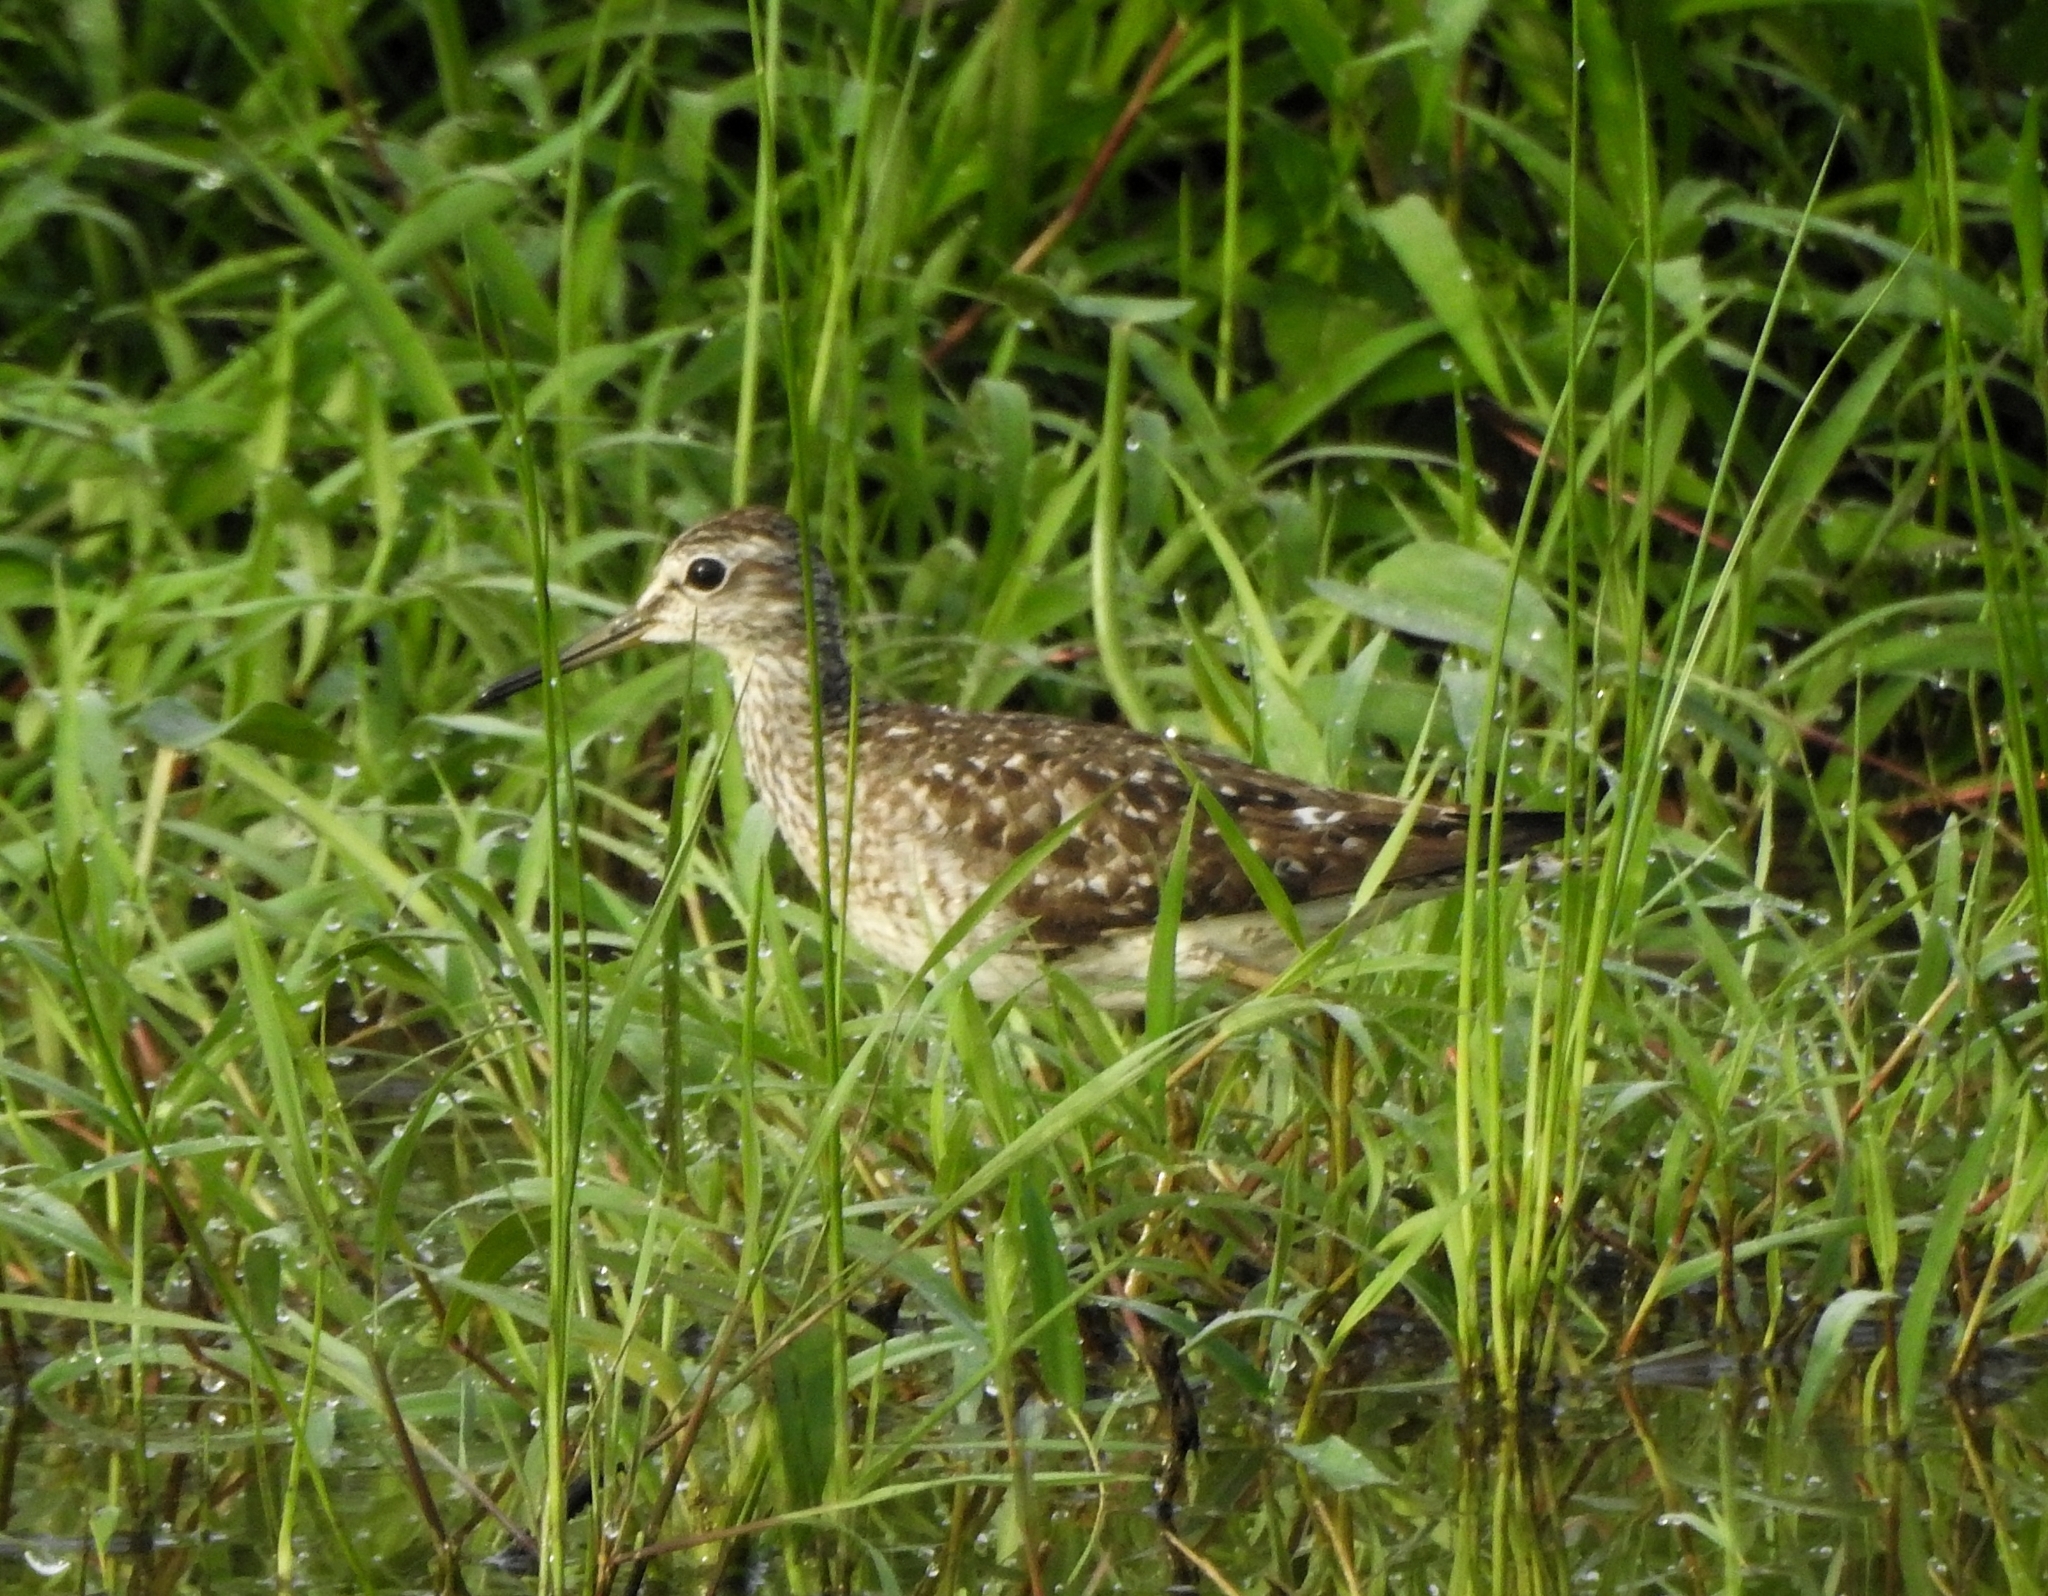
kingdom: Animalia
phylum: Chordata
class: Aves
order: Charadriiformes
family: Scolopacidae
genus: Tringa
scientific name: Tringa glareola
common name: Wood sandpiper
